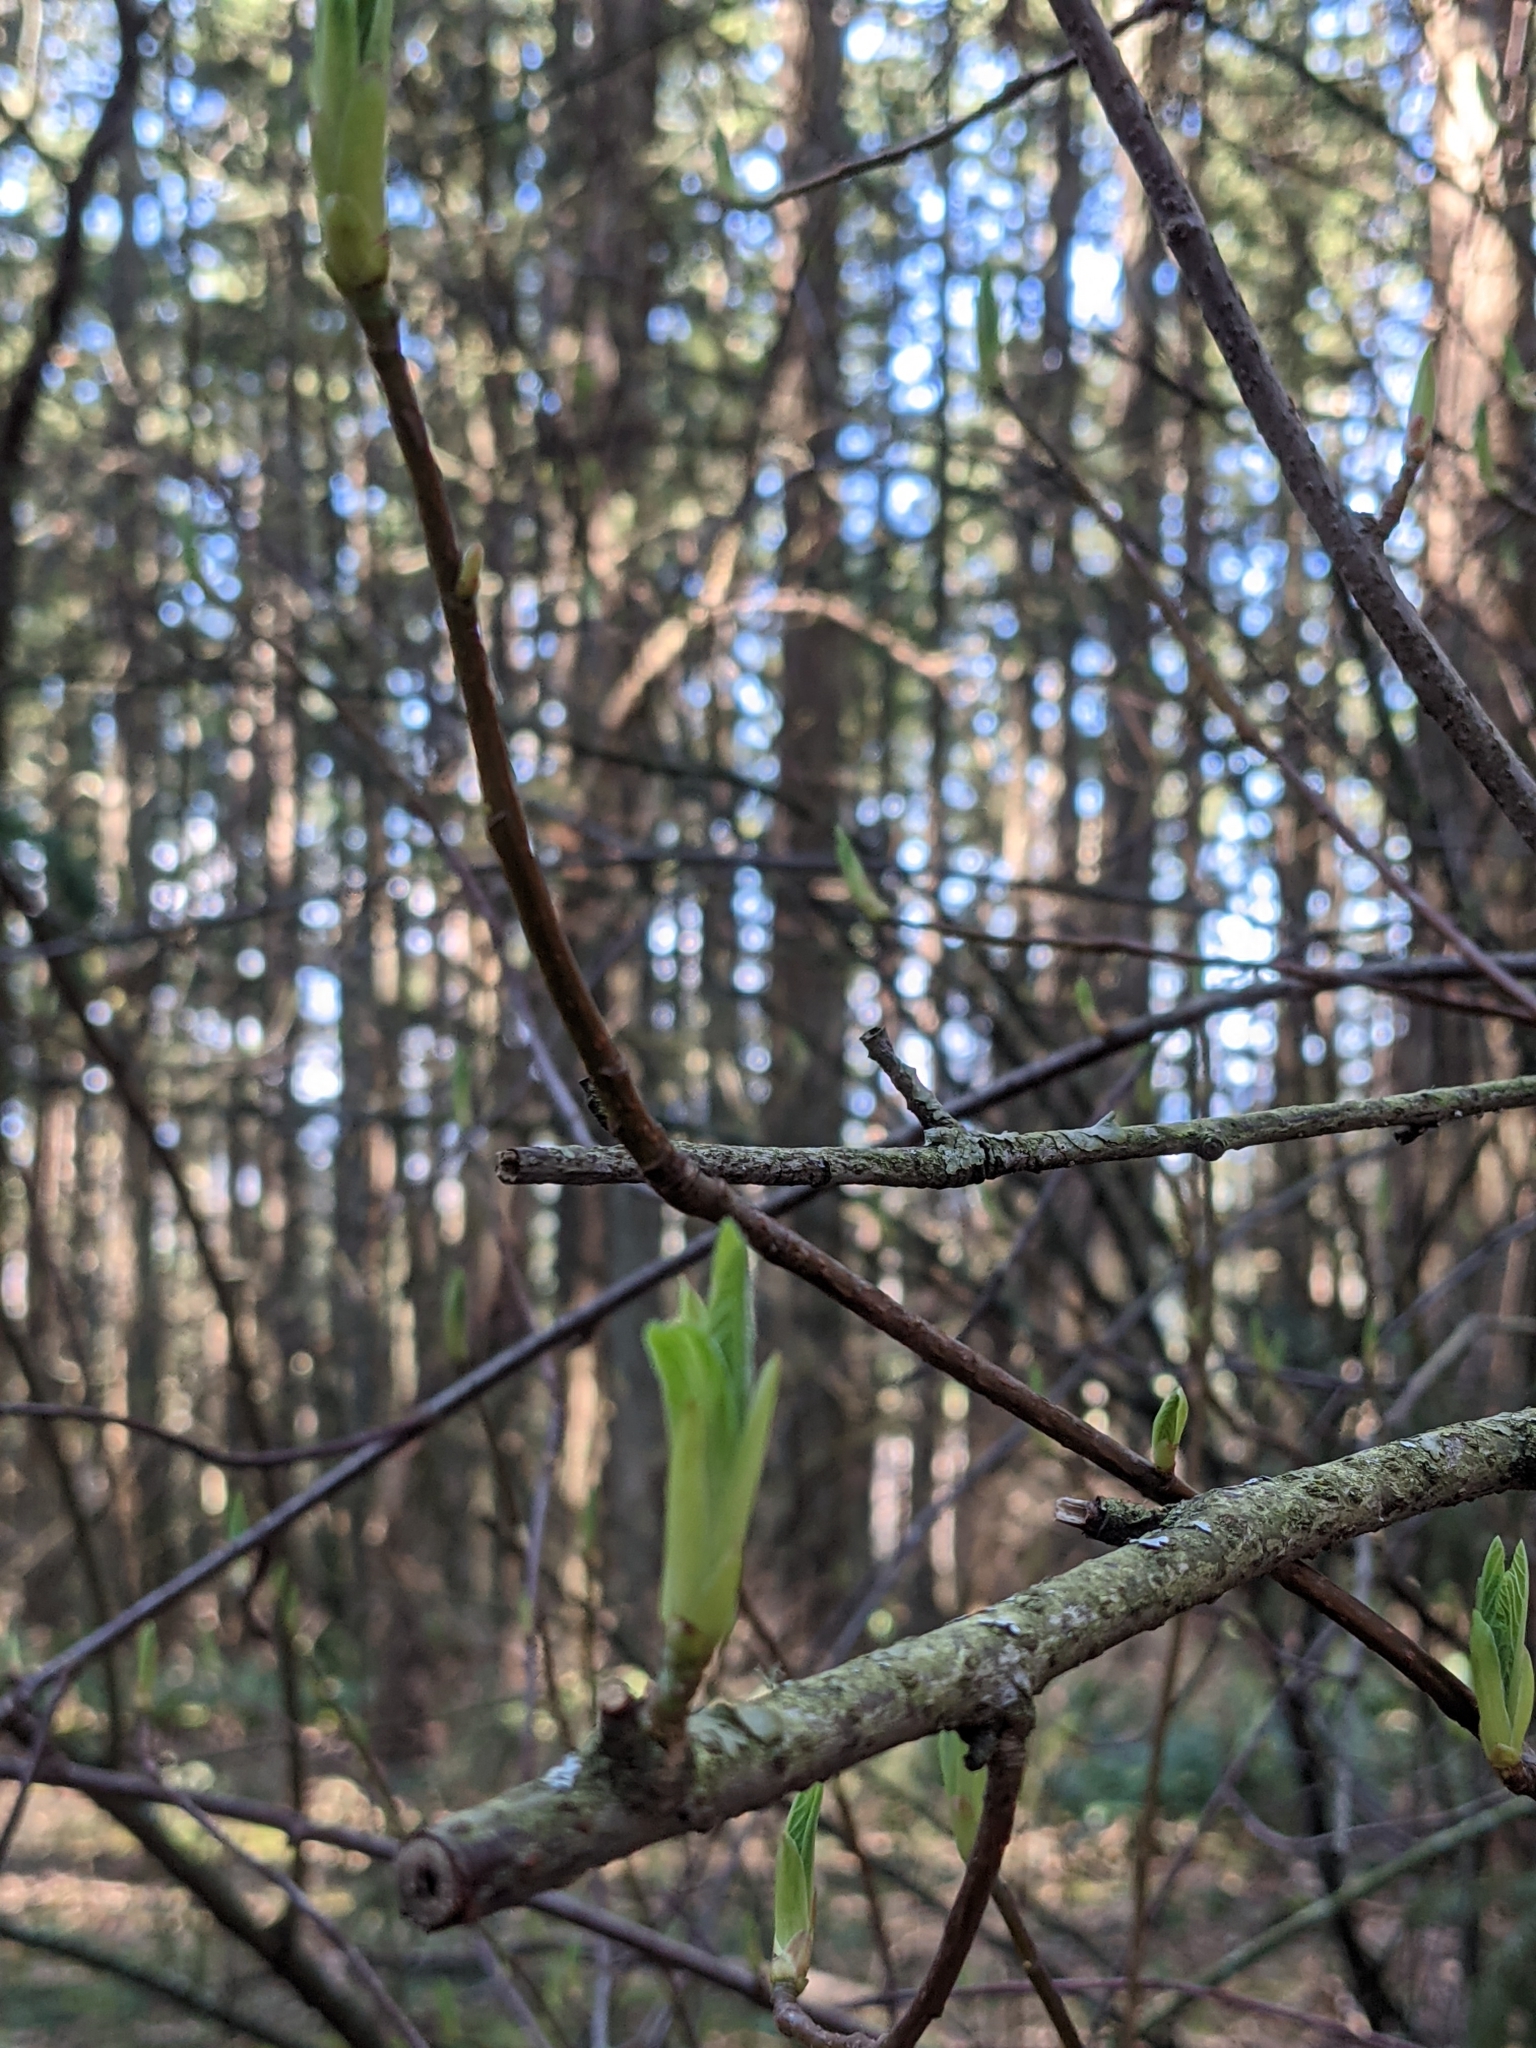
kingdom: Plantae
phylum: Tracheophyta
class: Magnoliopsida
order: Rosales
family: Rosaceae
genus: Oemleria
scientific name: Oemleria cerasiformis
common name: Osoberry
